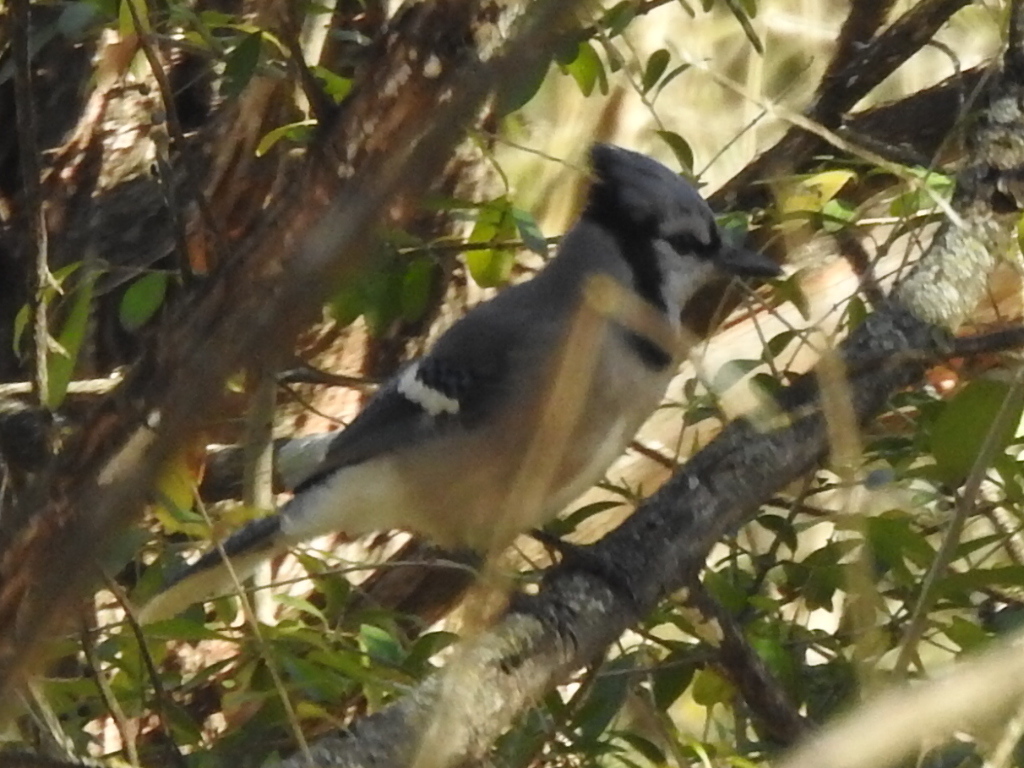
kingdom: Animalia
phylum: Chordata
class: Aves
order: Passeriformes
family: Corvidae
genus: Cyanocitta
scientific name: Cyanocitta cristata
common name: Blue jay
